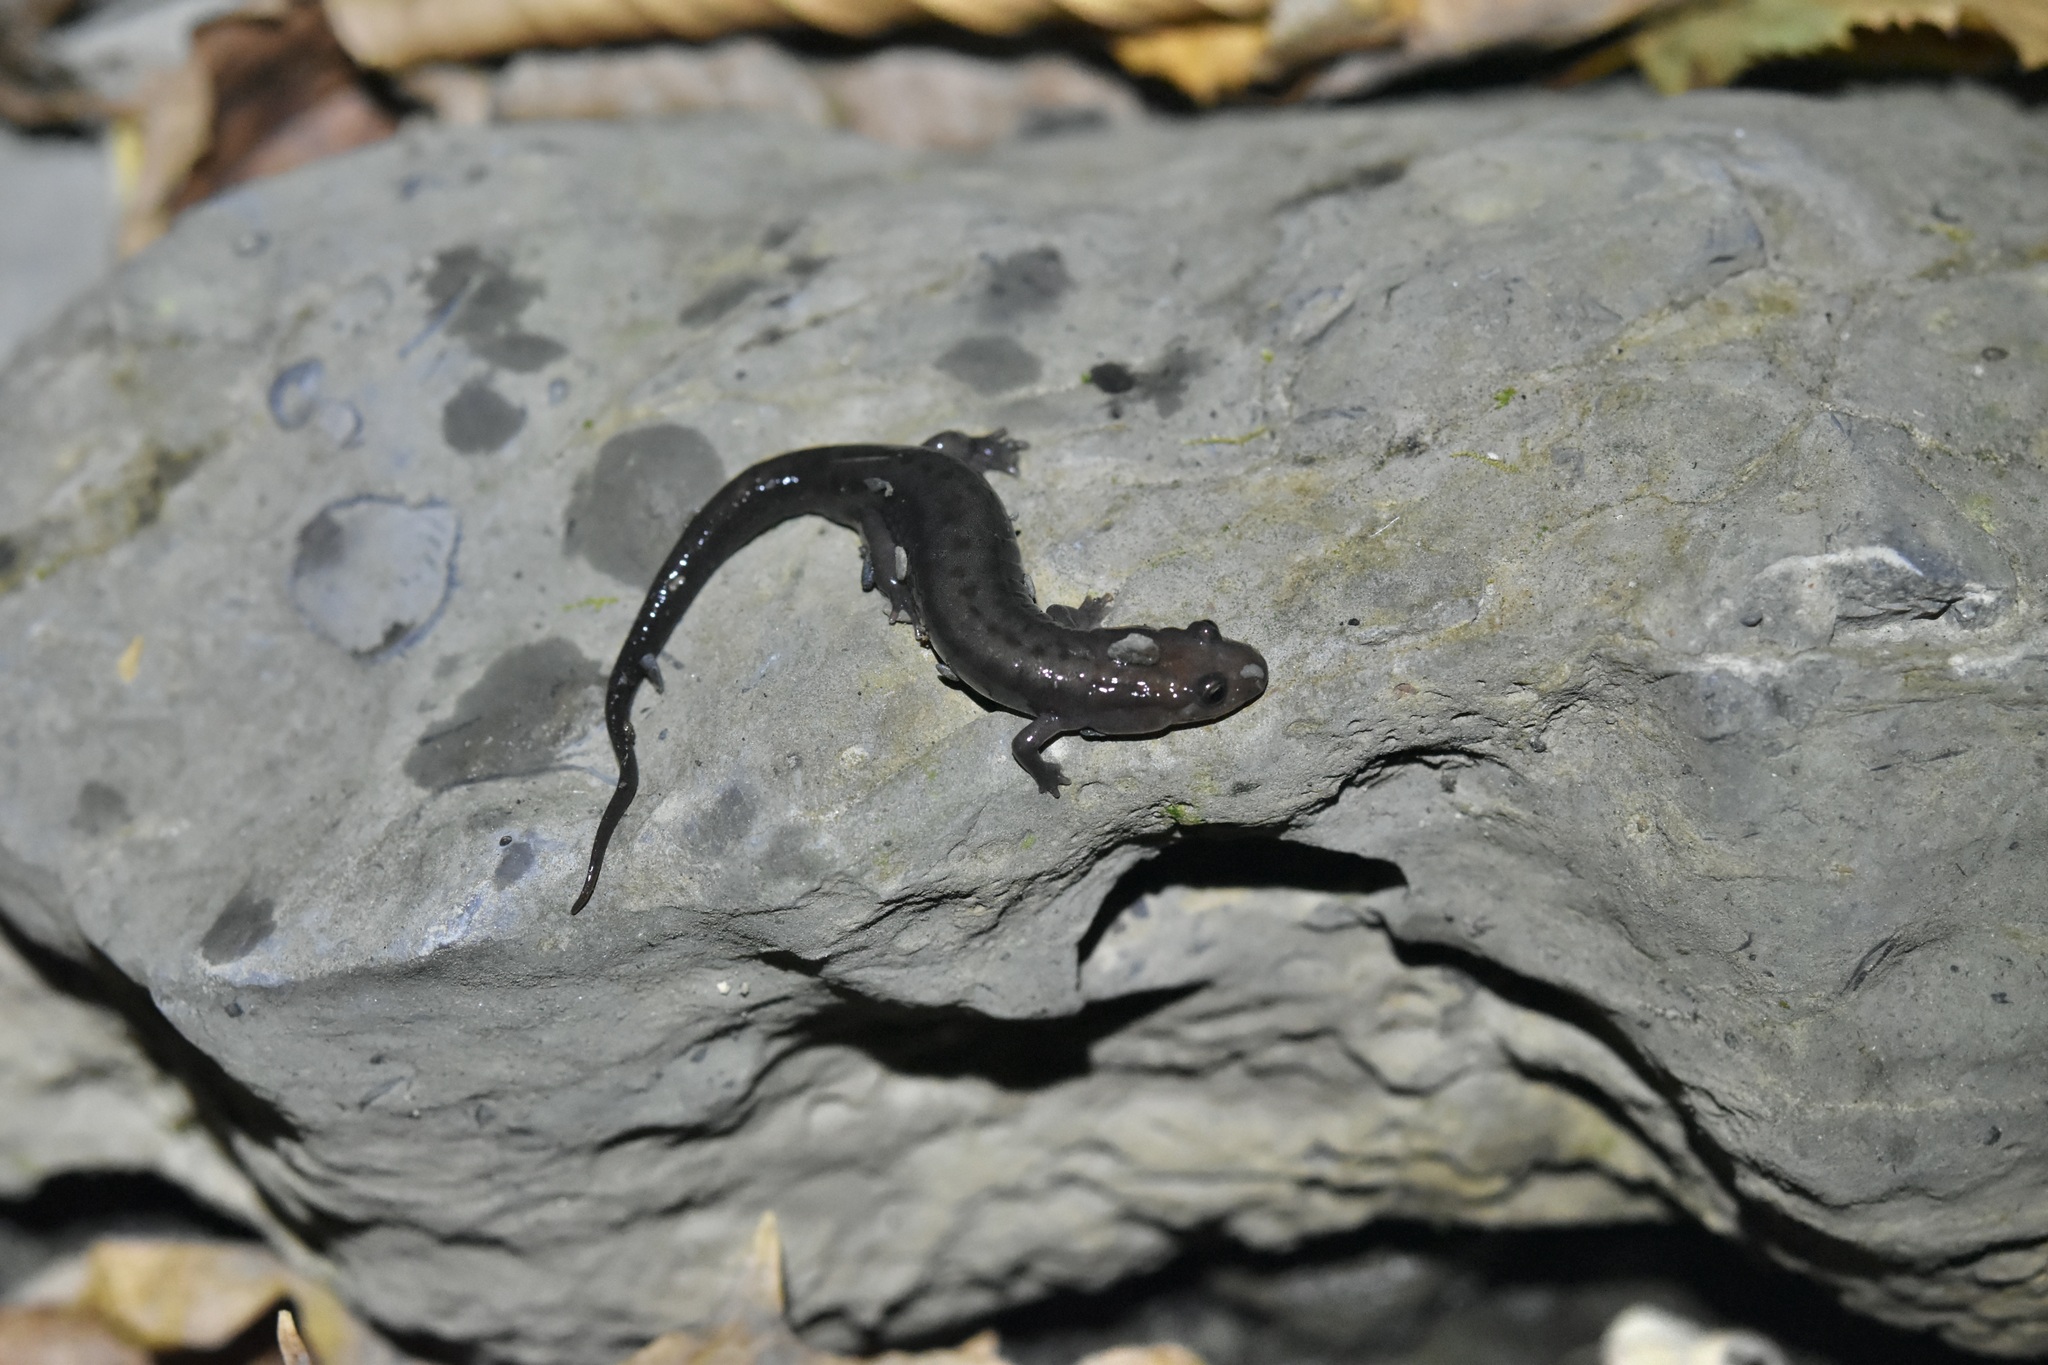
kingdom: Animalia
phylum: Chordata
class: Amphibia
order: Caudata
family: Plethodontidae
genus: Desmognathus
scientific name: Desmognathus ochrophaeus
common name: Allegheny mountain dusky salamander
